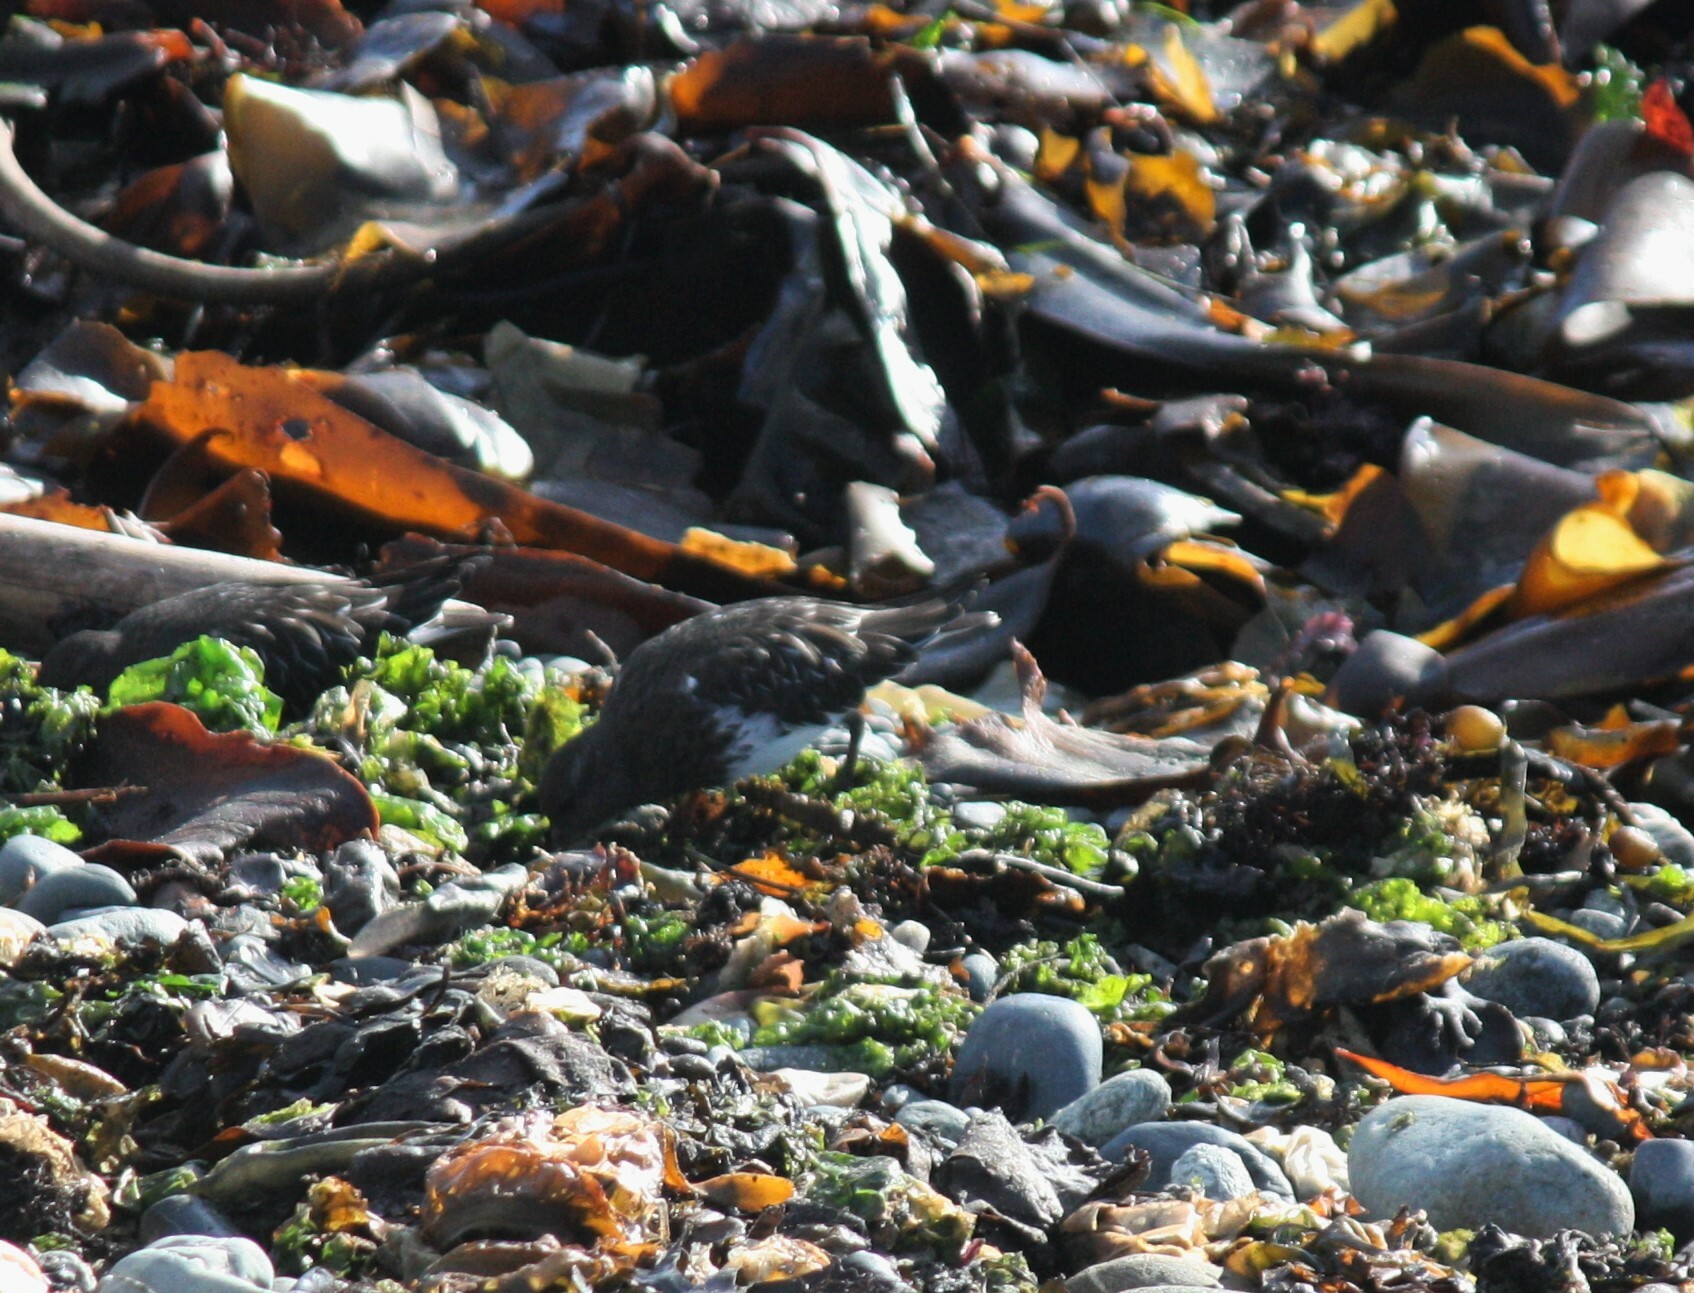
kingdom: Animalia
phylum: Chordata
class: Aves
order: Charadriiformes
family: Scolopacidae
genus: Arenaria
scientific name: Arenaria melanocephala
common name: Black turnstone
